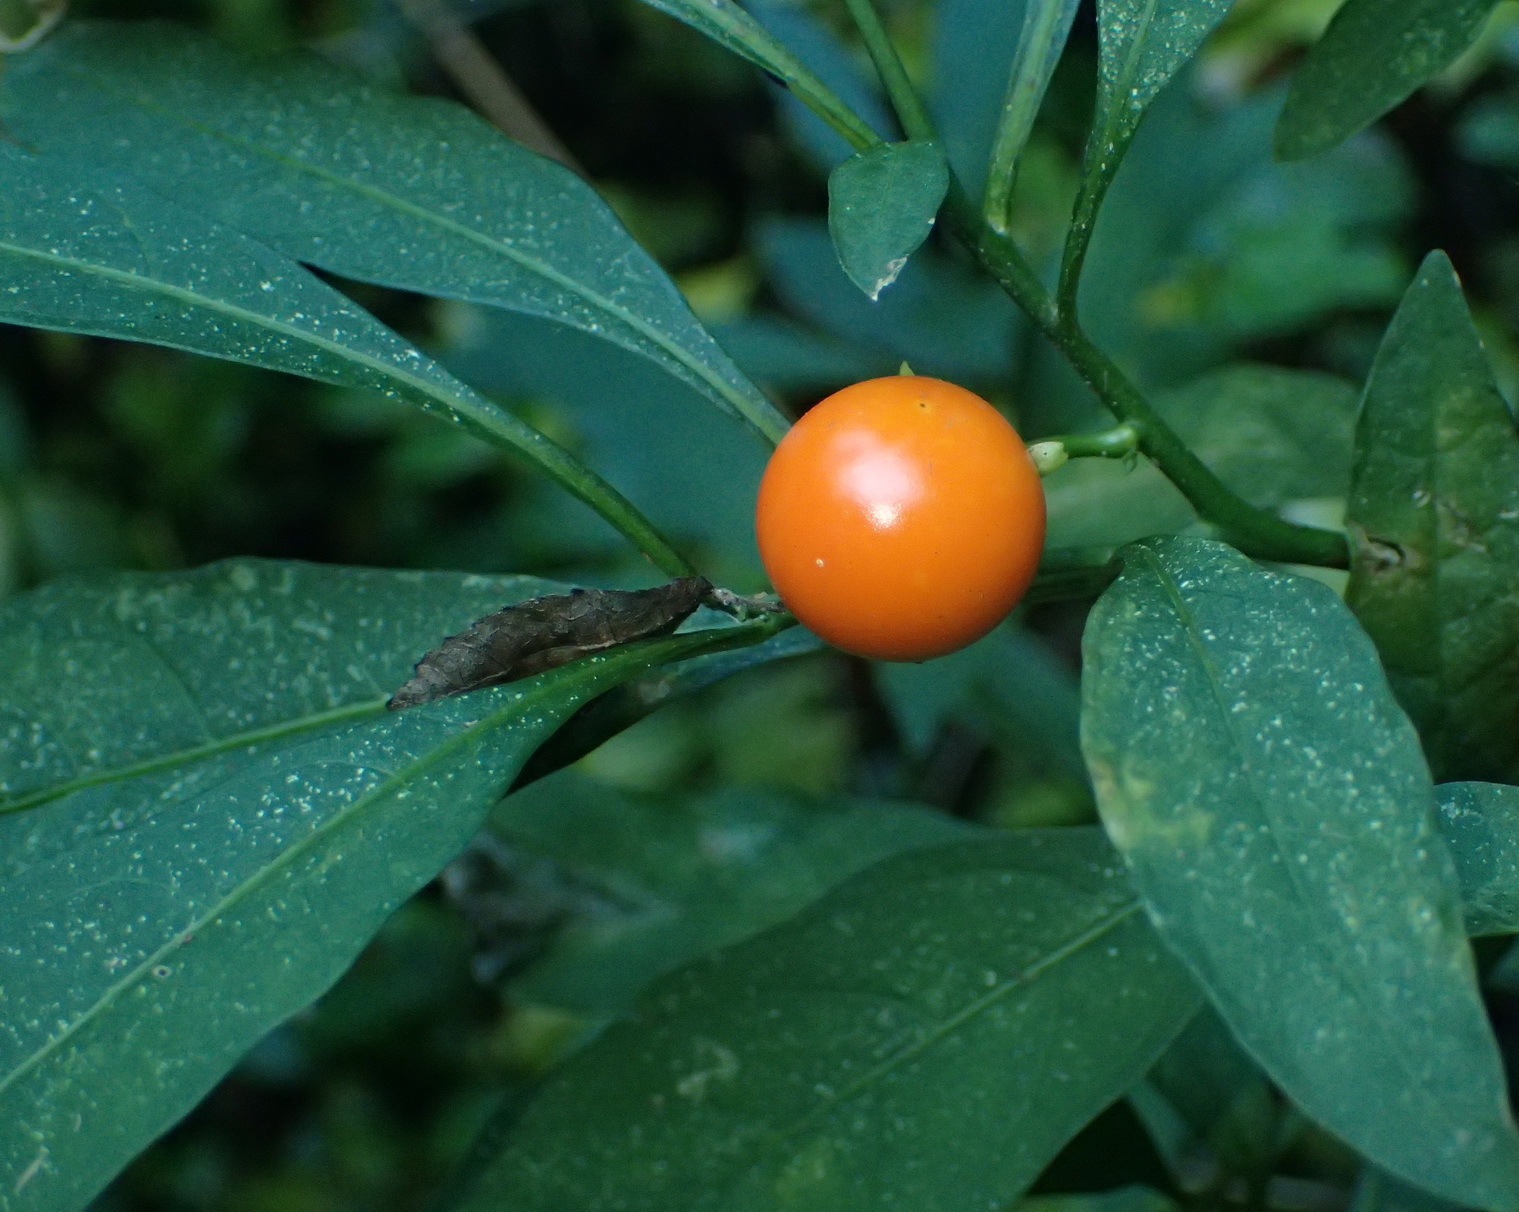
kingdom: Plantae
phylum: Tracheophyta
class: Magnoliopsida
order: Solanales
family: Solanaceae
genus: Solanum
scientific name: Solanum pseudocapsicum
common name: Jerusalem cherry
